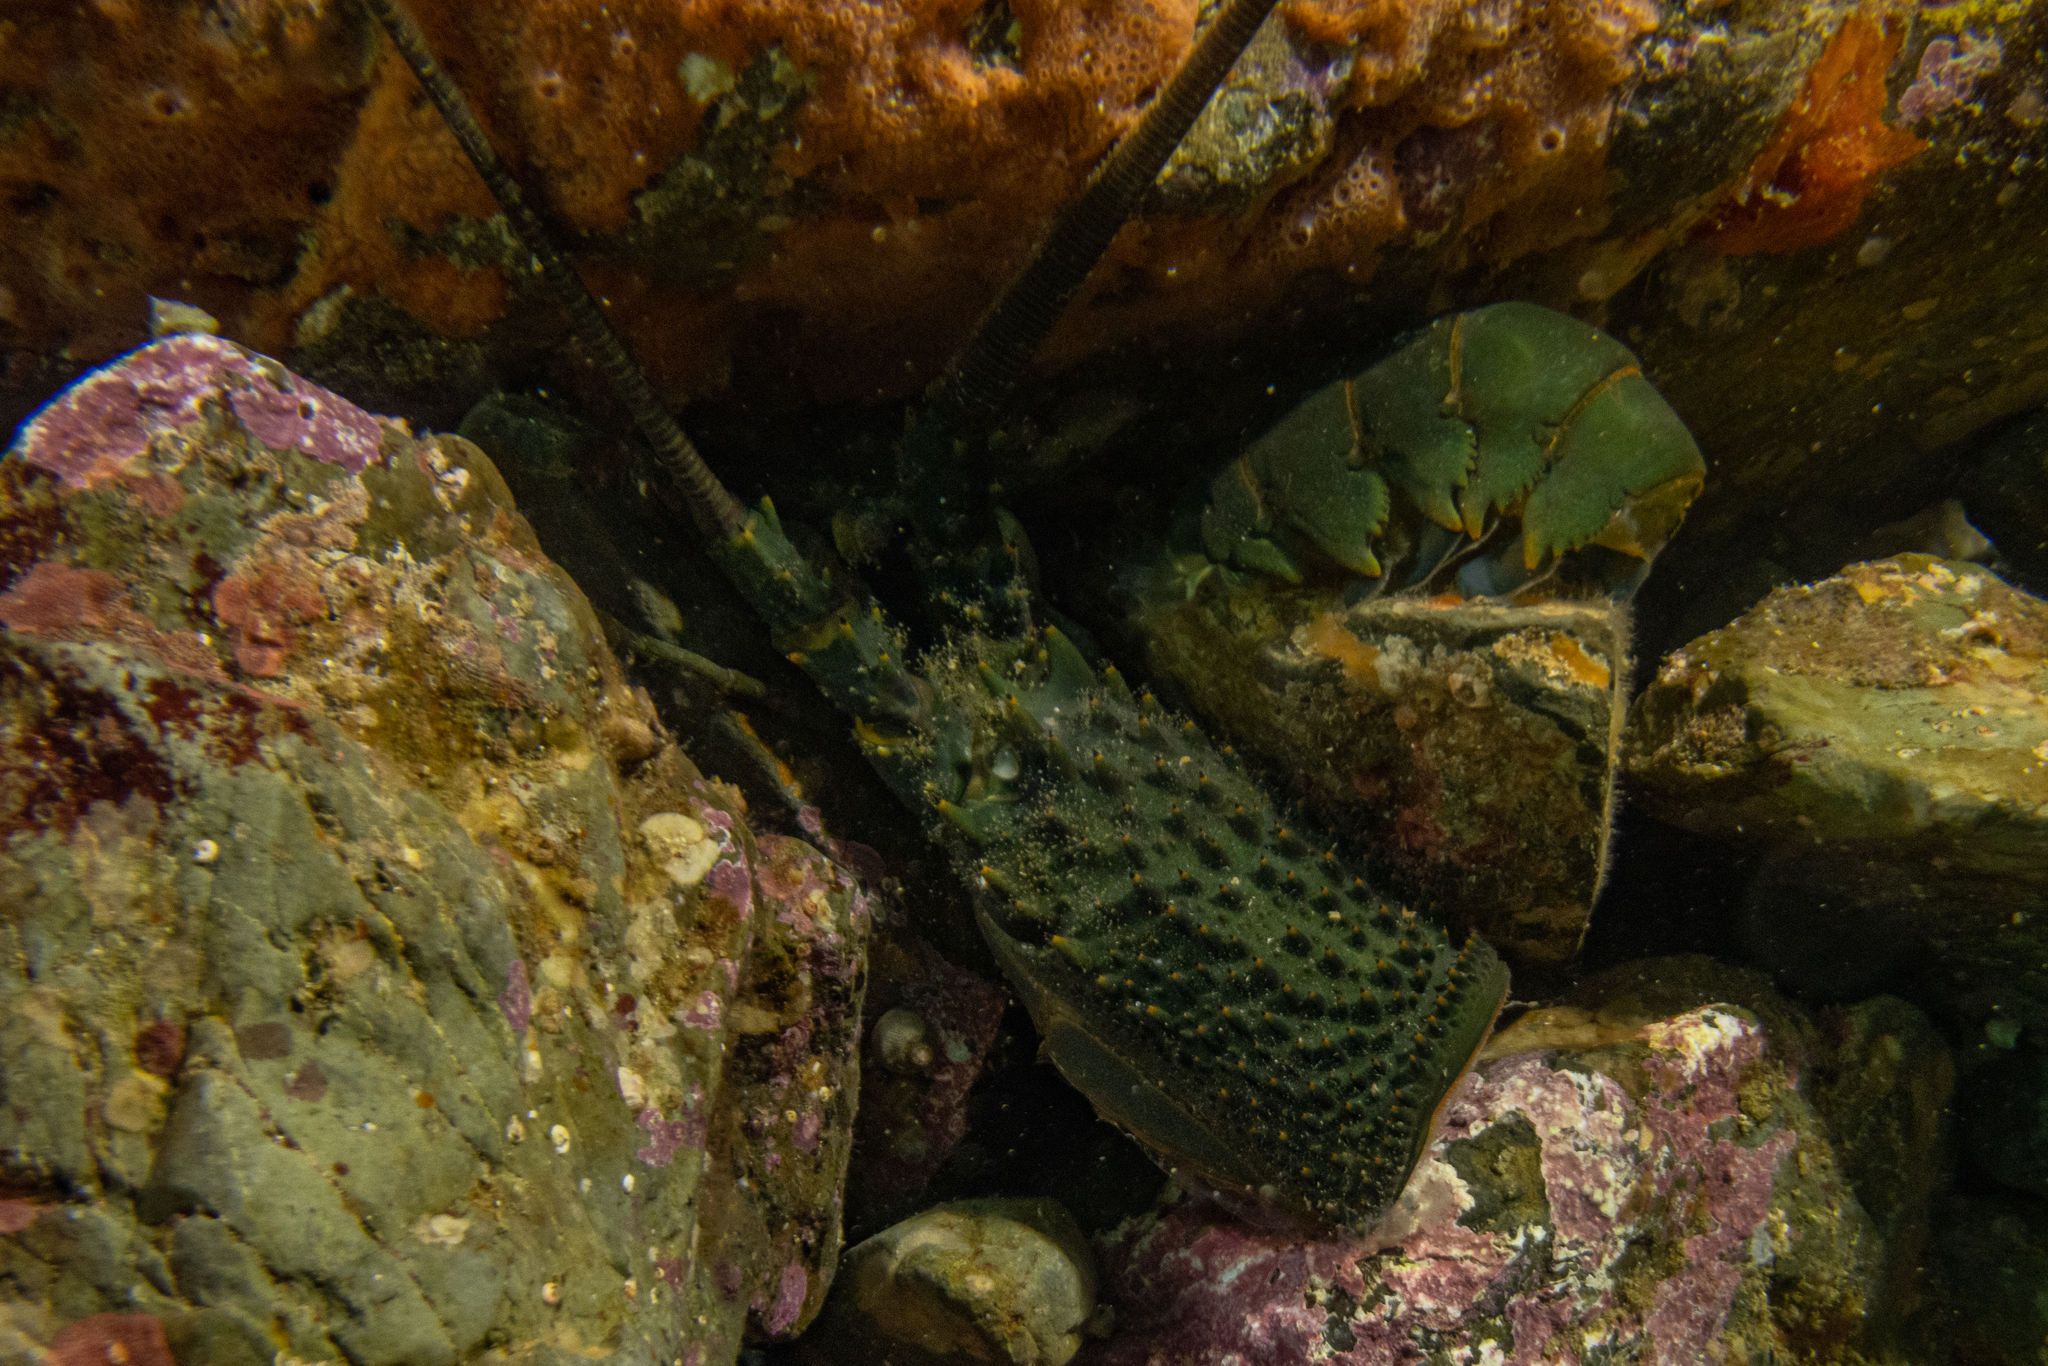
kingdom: Animalia
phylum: Arthropoda
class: Malacostraca
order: Decapoda
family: Palinuridae
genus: Sagmariasus
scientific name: Sagmariasus verreauxi
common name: Green rock lobster
